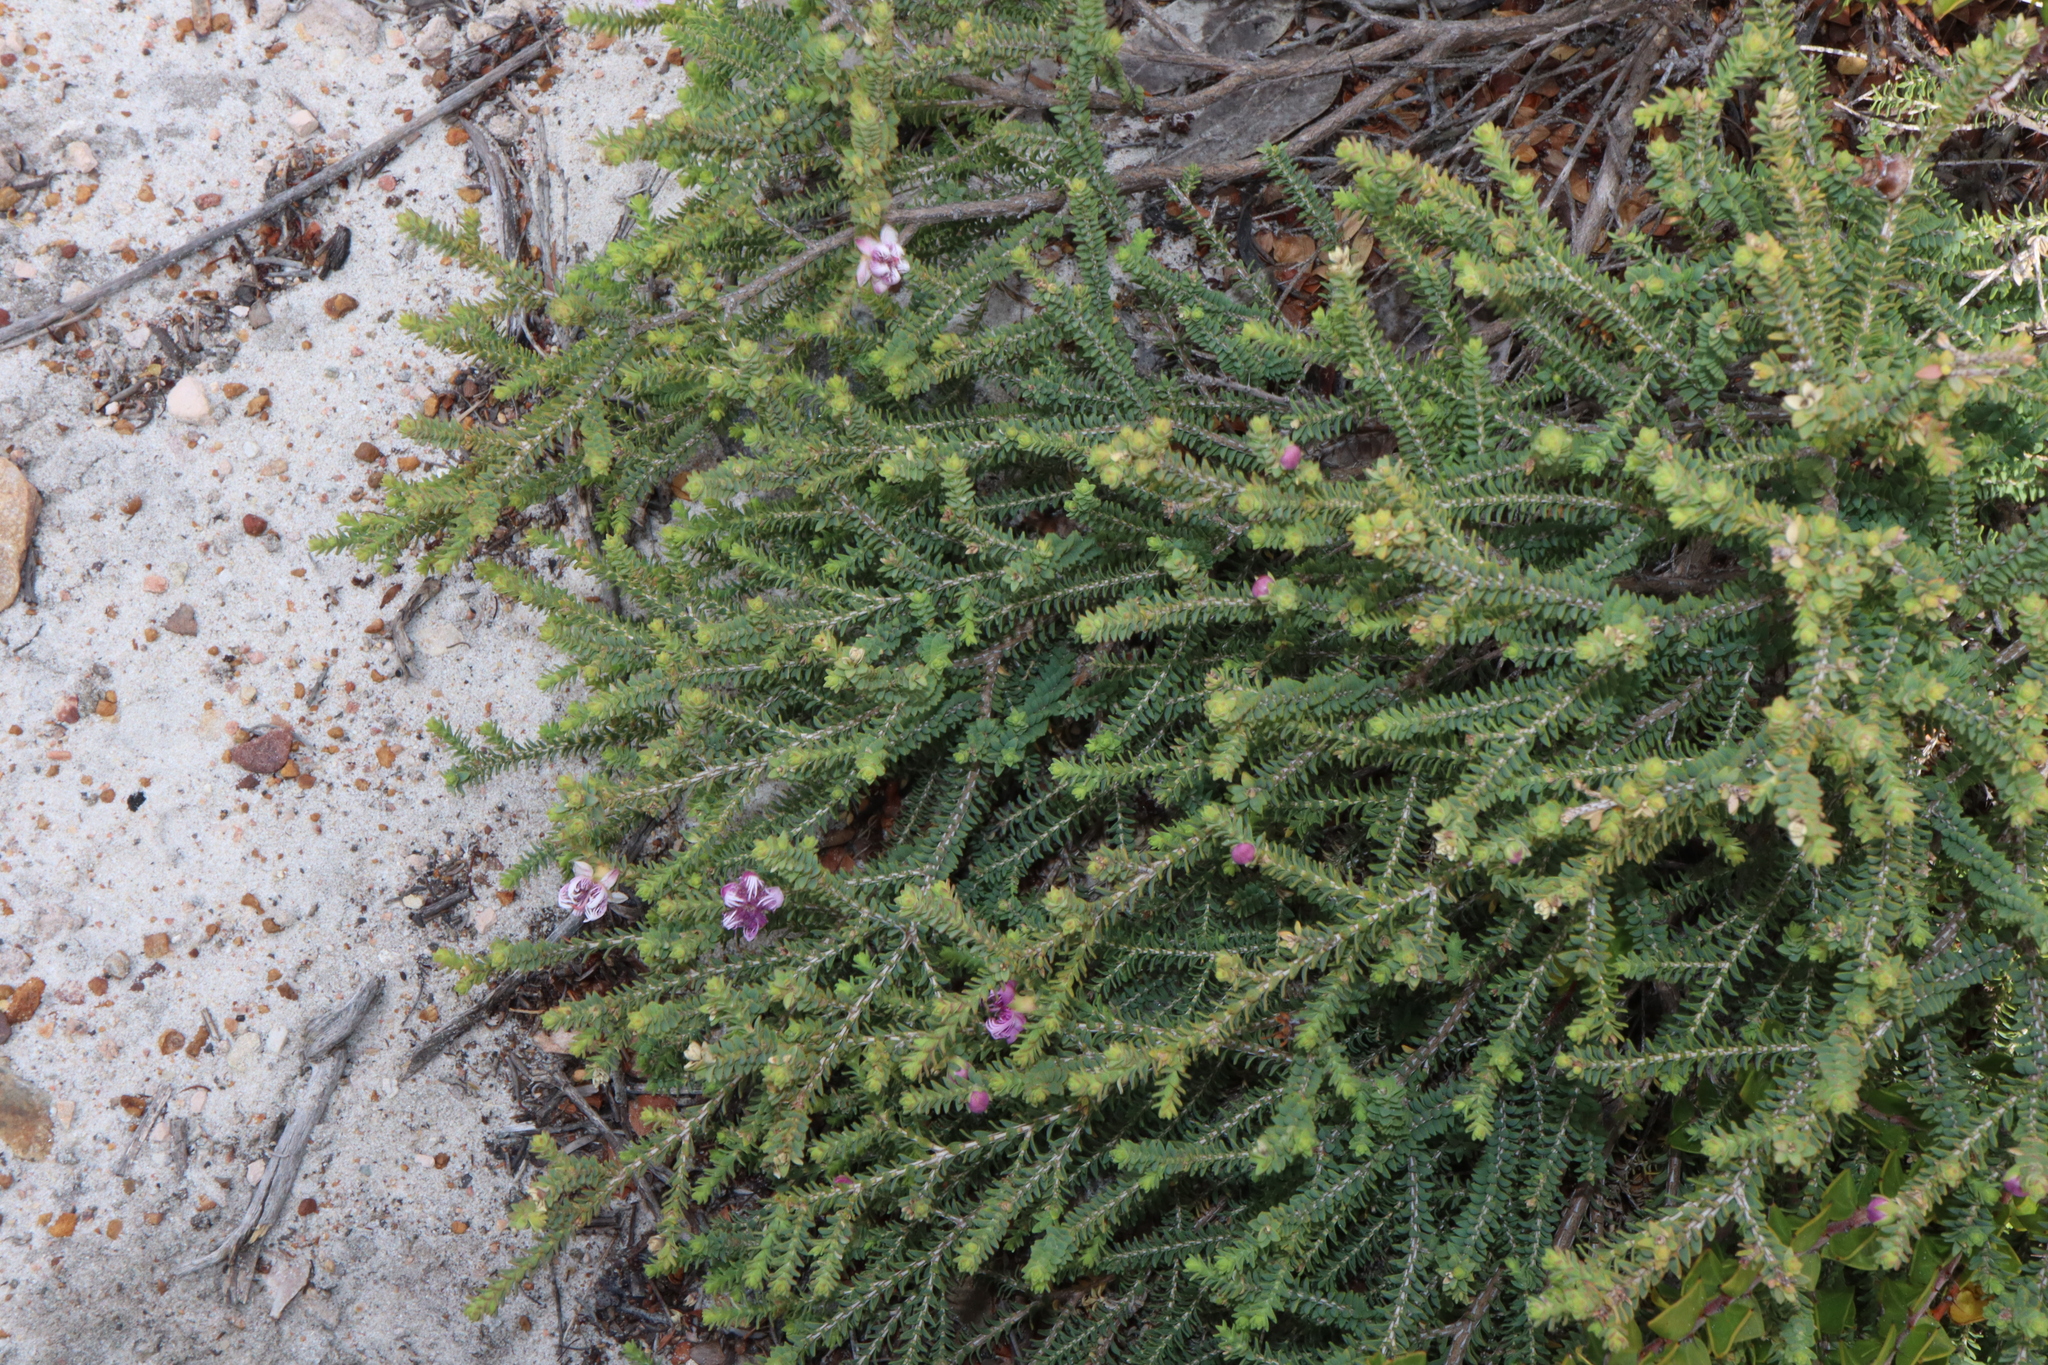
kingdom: Plantae
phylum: Tracheophyta
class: Magnoliopsida
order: Myrtales
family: Myrtaceae
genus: Melaleuca
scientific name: Melaleuca pulchella
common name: Claw-flower
